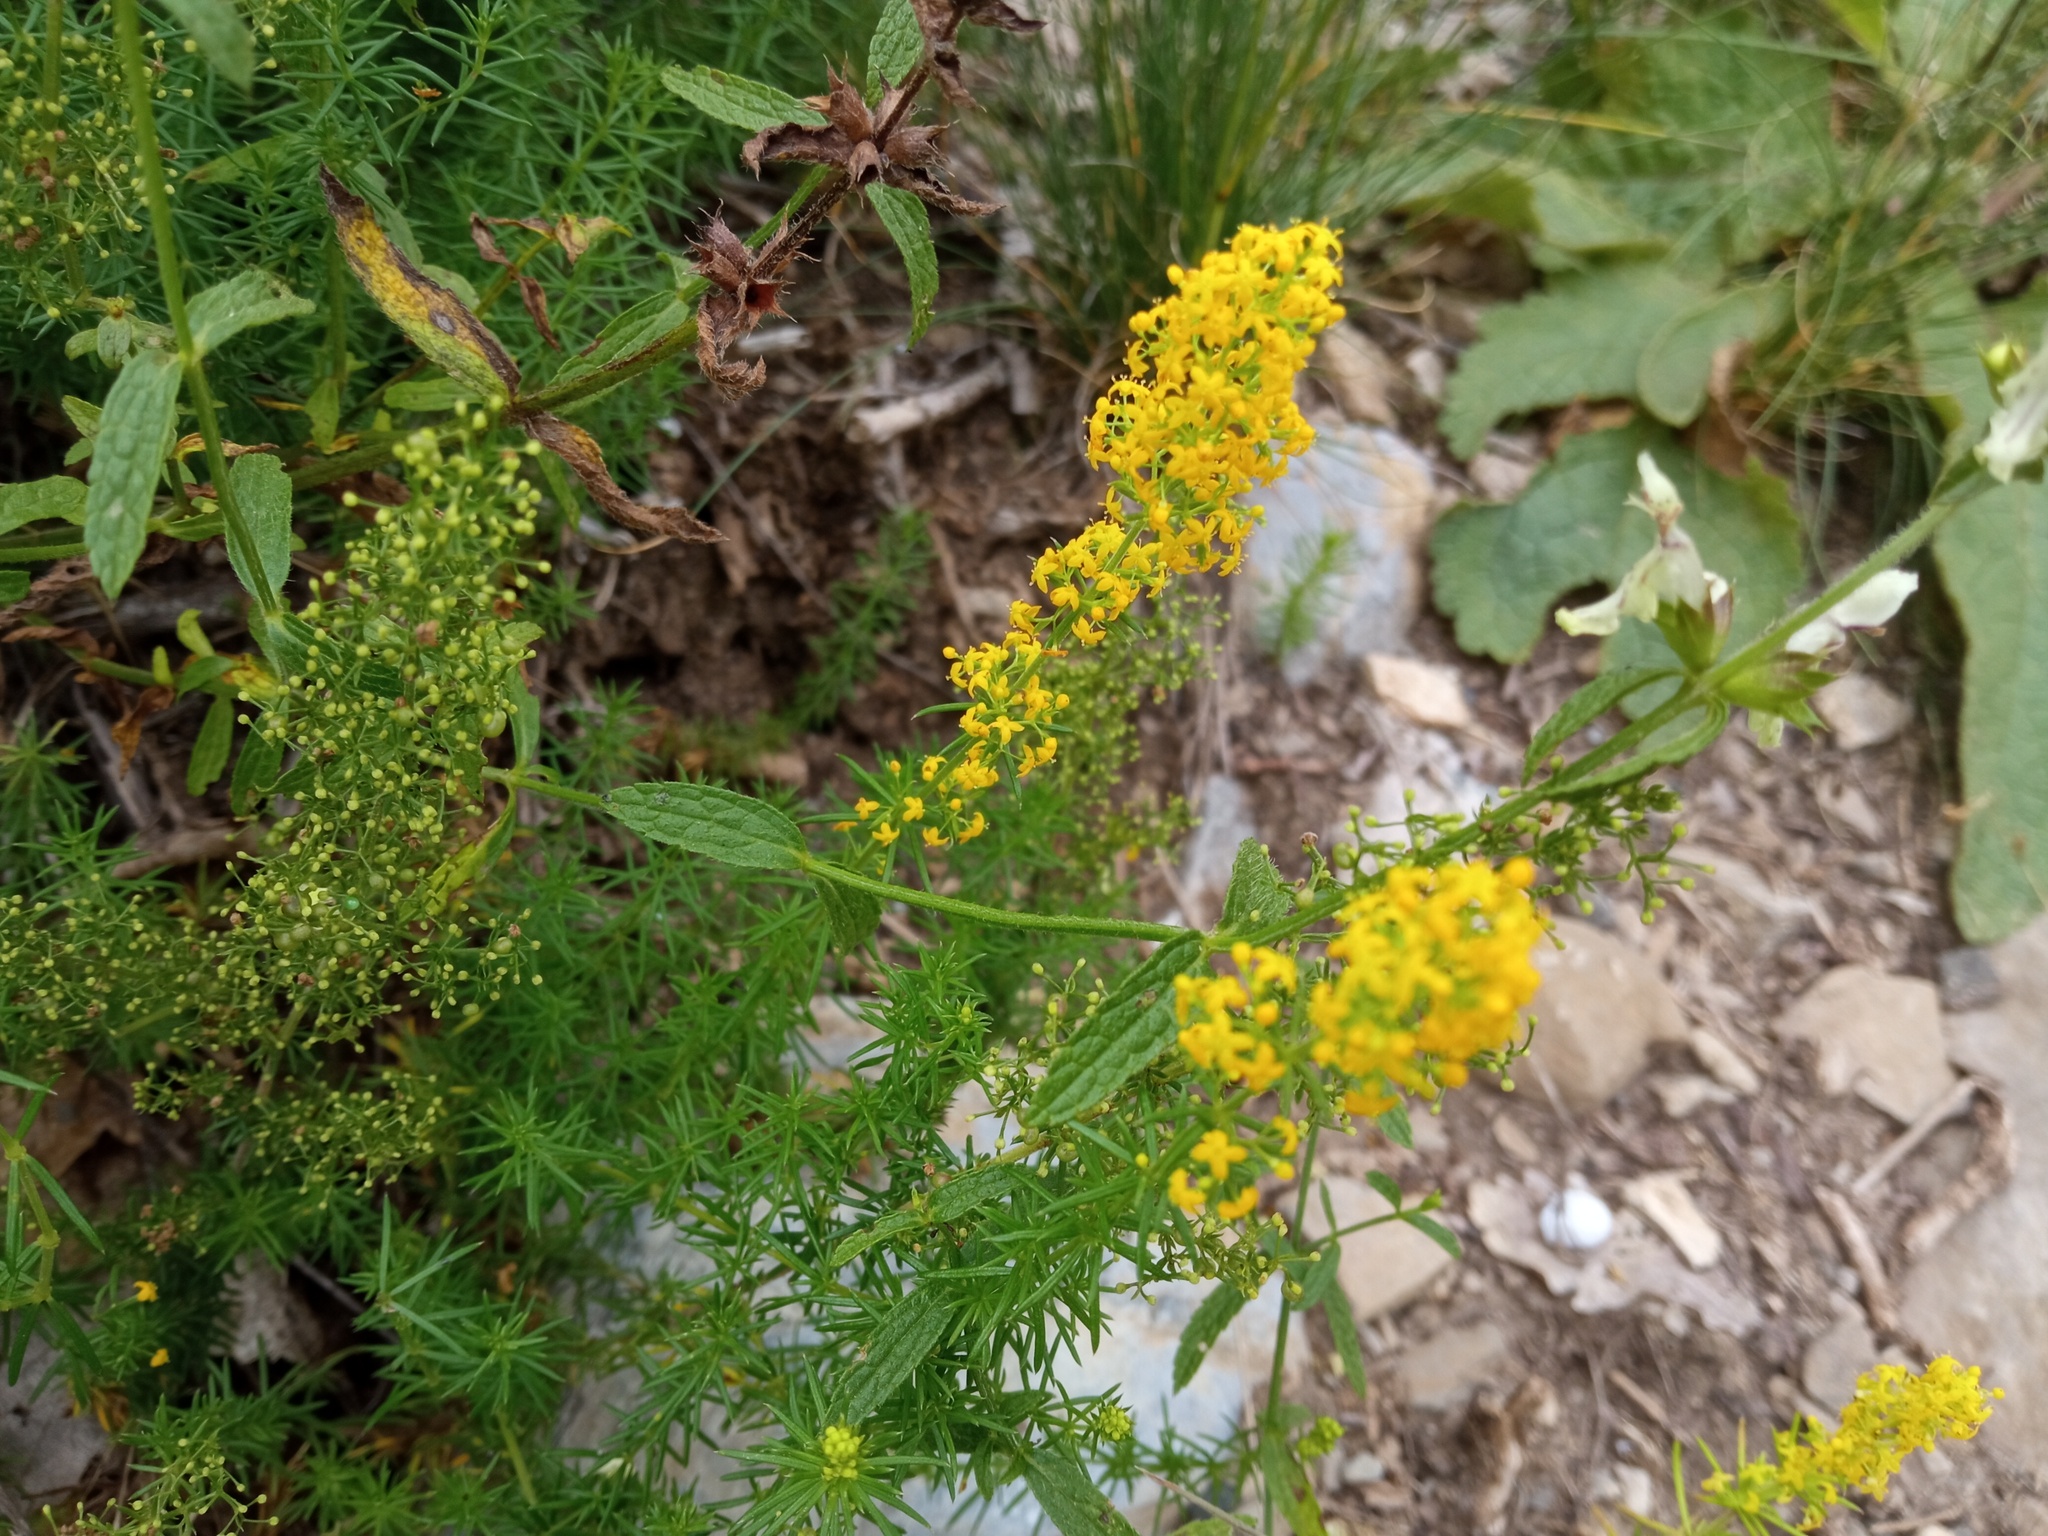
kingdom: Plantae
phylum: Tracheophyta
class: Magnoliopsida
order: Gentianales
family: Rubiaceae
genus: Galium
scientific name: Galium verum
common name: Lady's bedstraw
